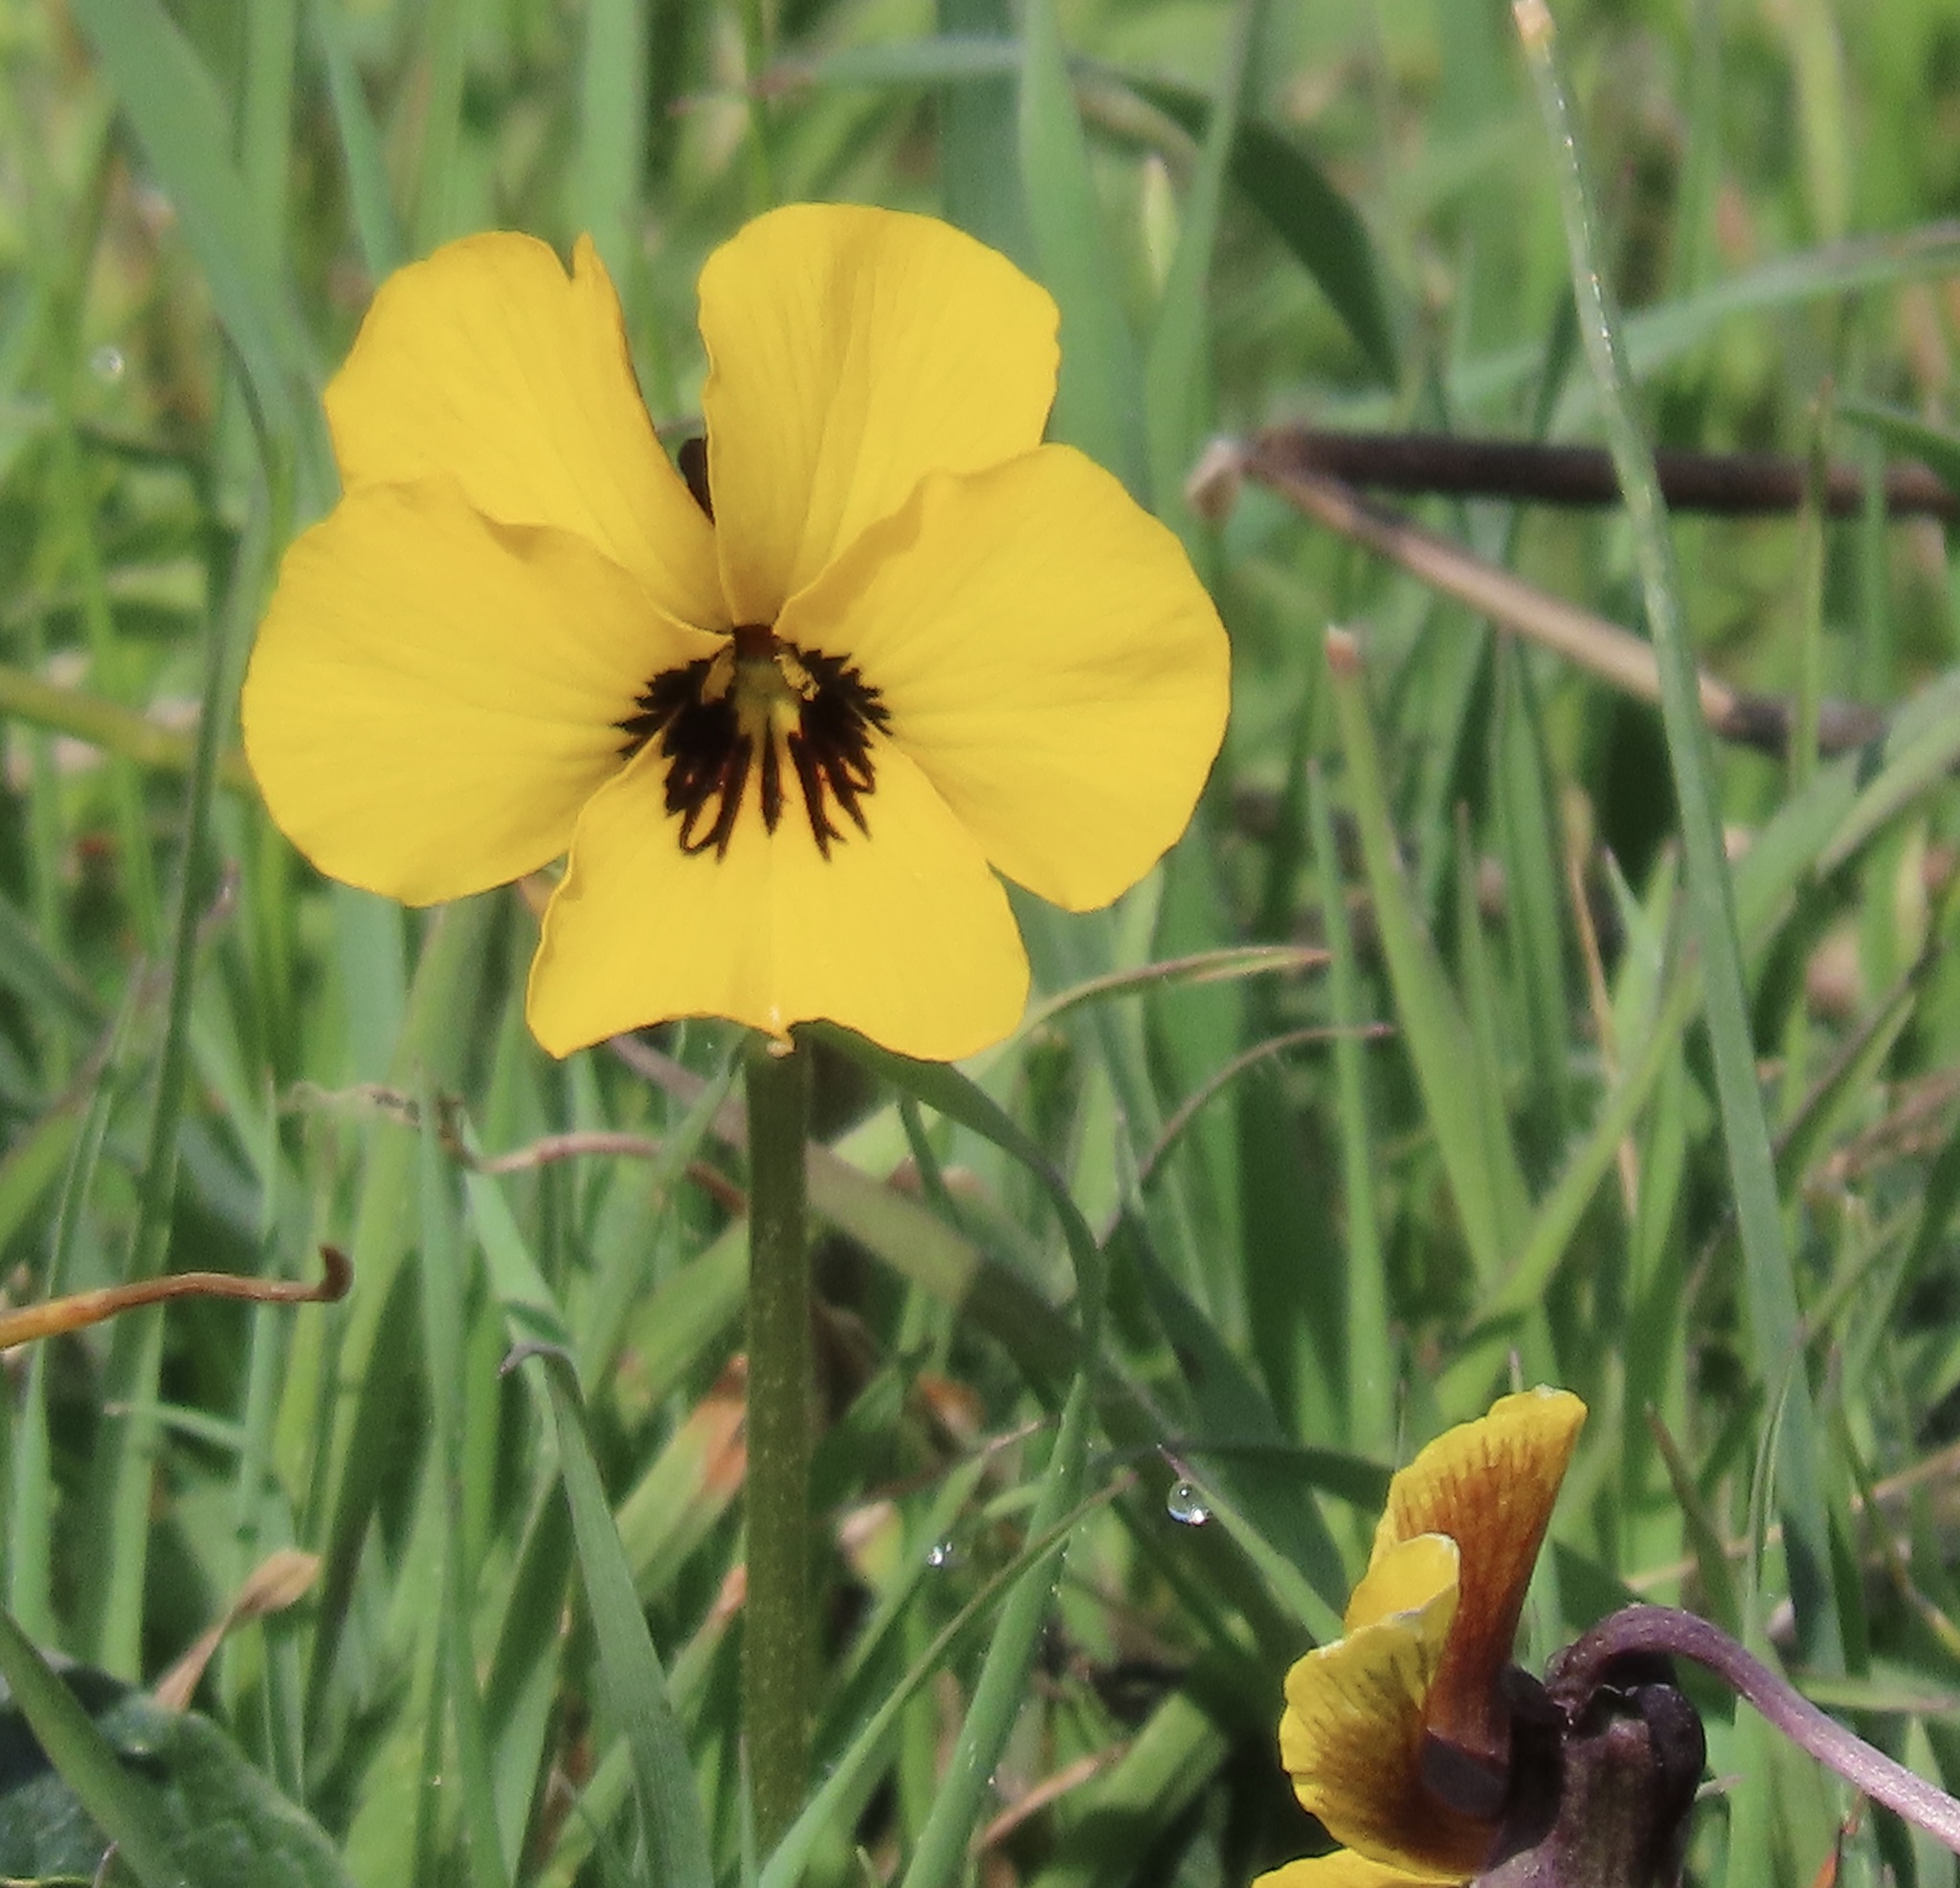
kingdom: Plantae
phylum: Tracheophyta
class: Magnoliopsida
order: Malpighiales
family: Violaceae
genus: Viola
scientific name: Viola pedunculata
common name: California golden violet
